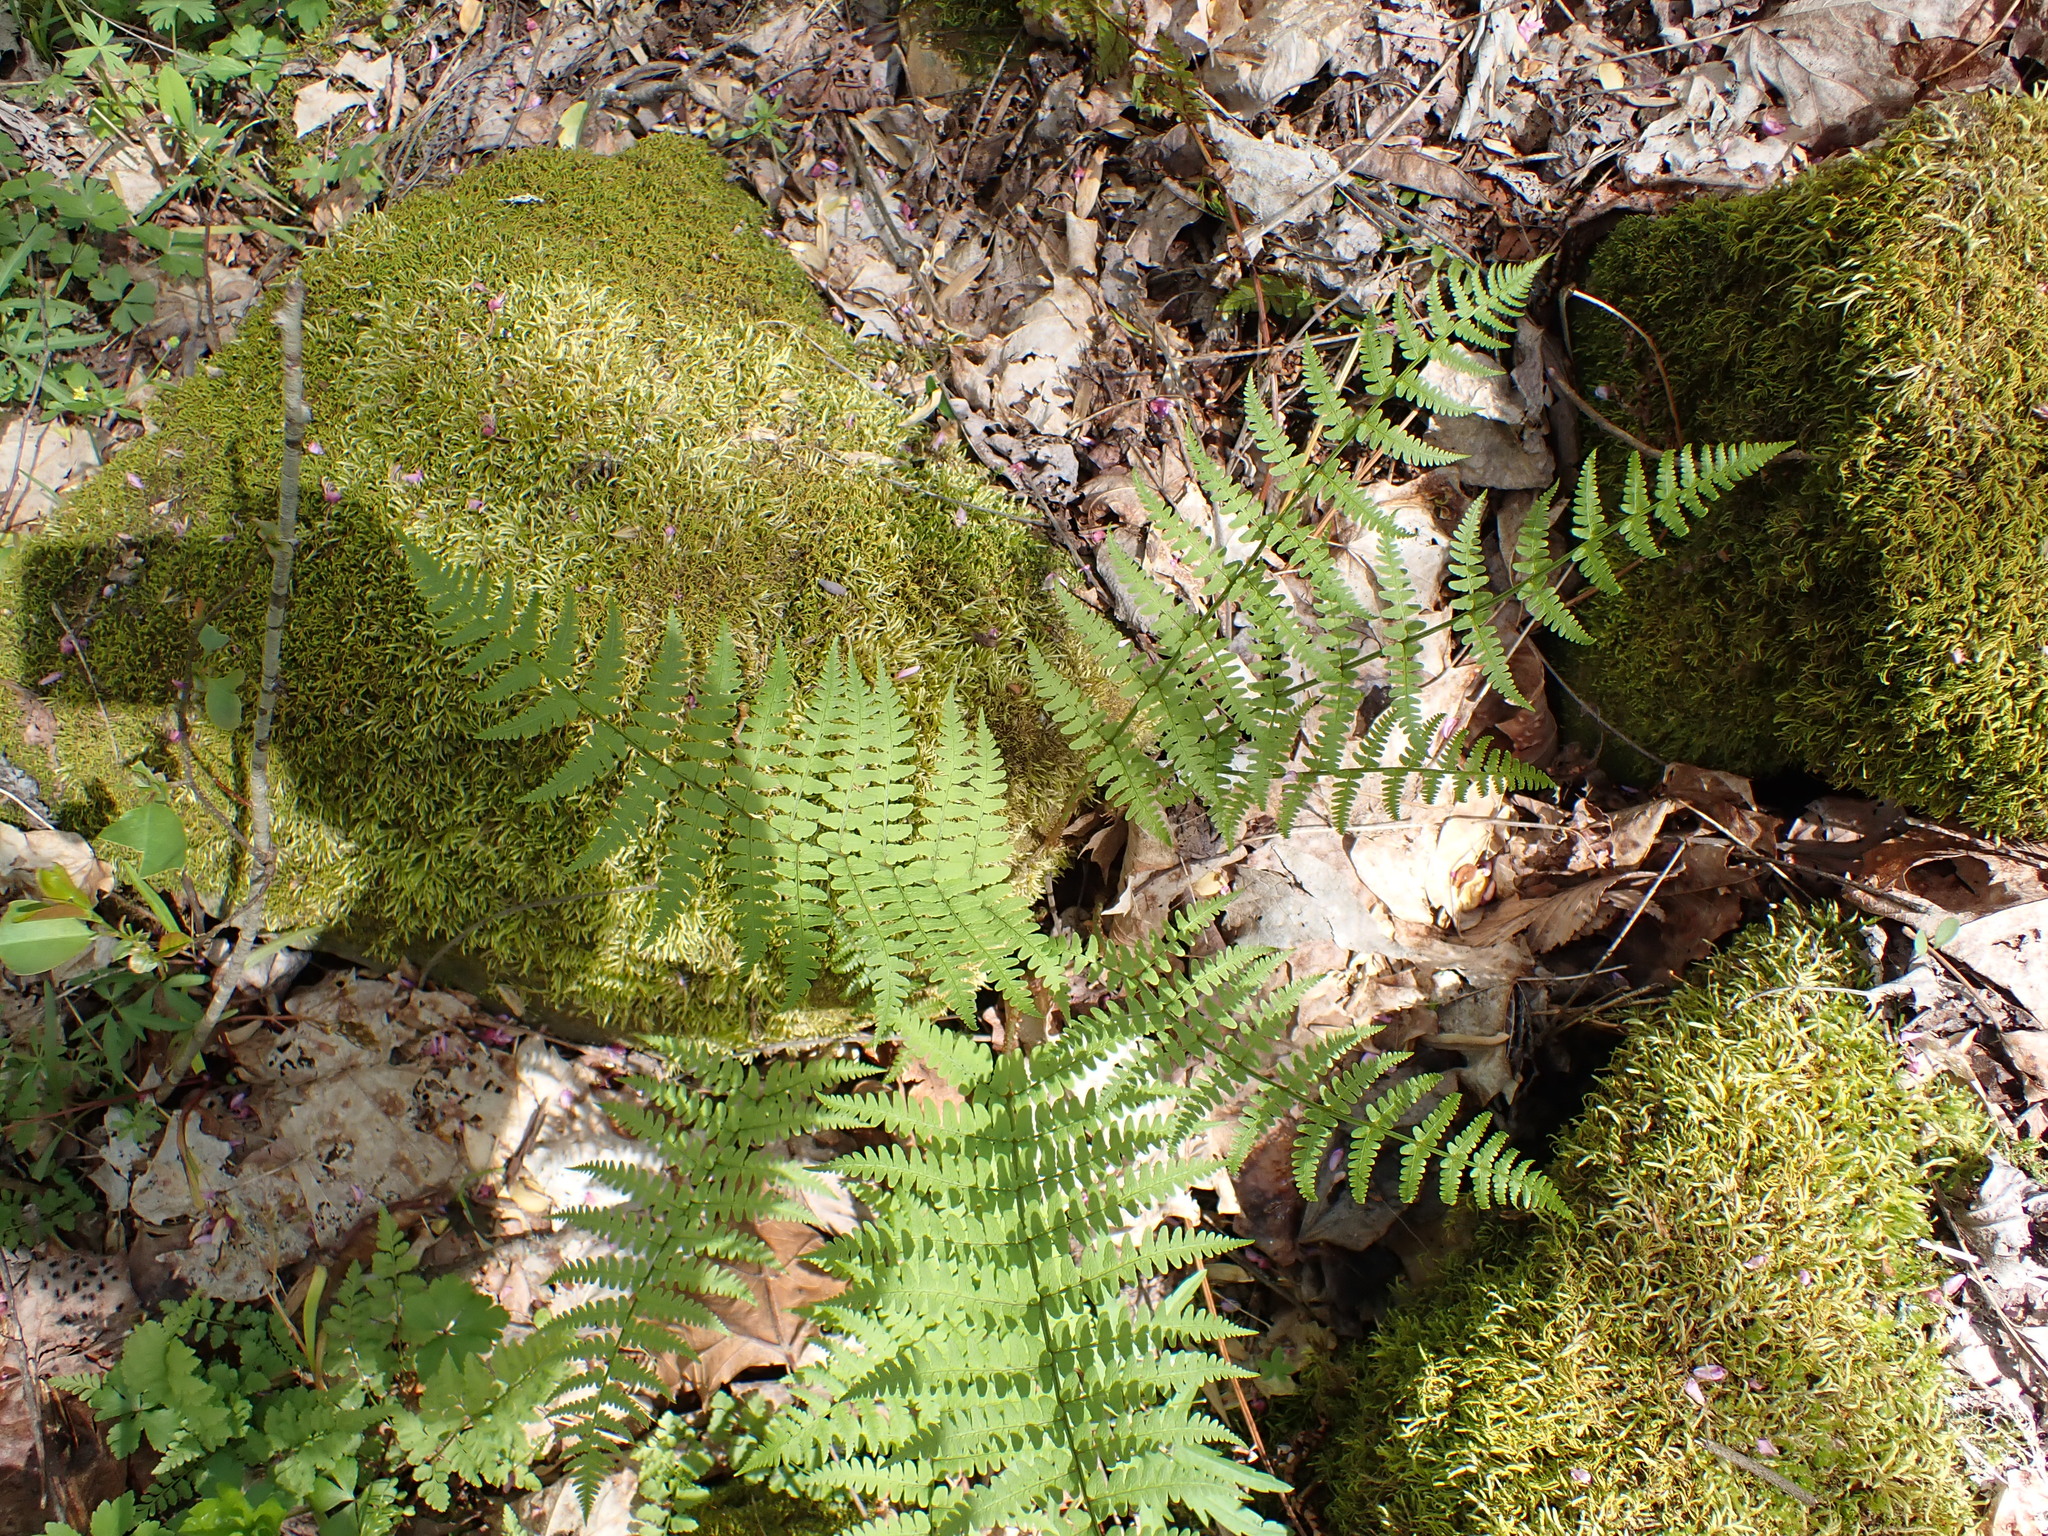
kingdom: Plantae
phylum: Tracheophyta
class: Polypodiopsida
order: Polypodiales
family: Dryopteridaceae
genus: Dryopteris
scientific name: Dryopteris marginalis
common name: Marginal wood fern
